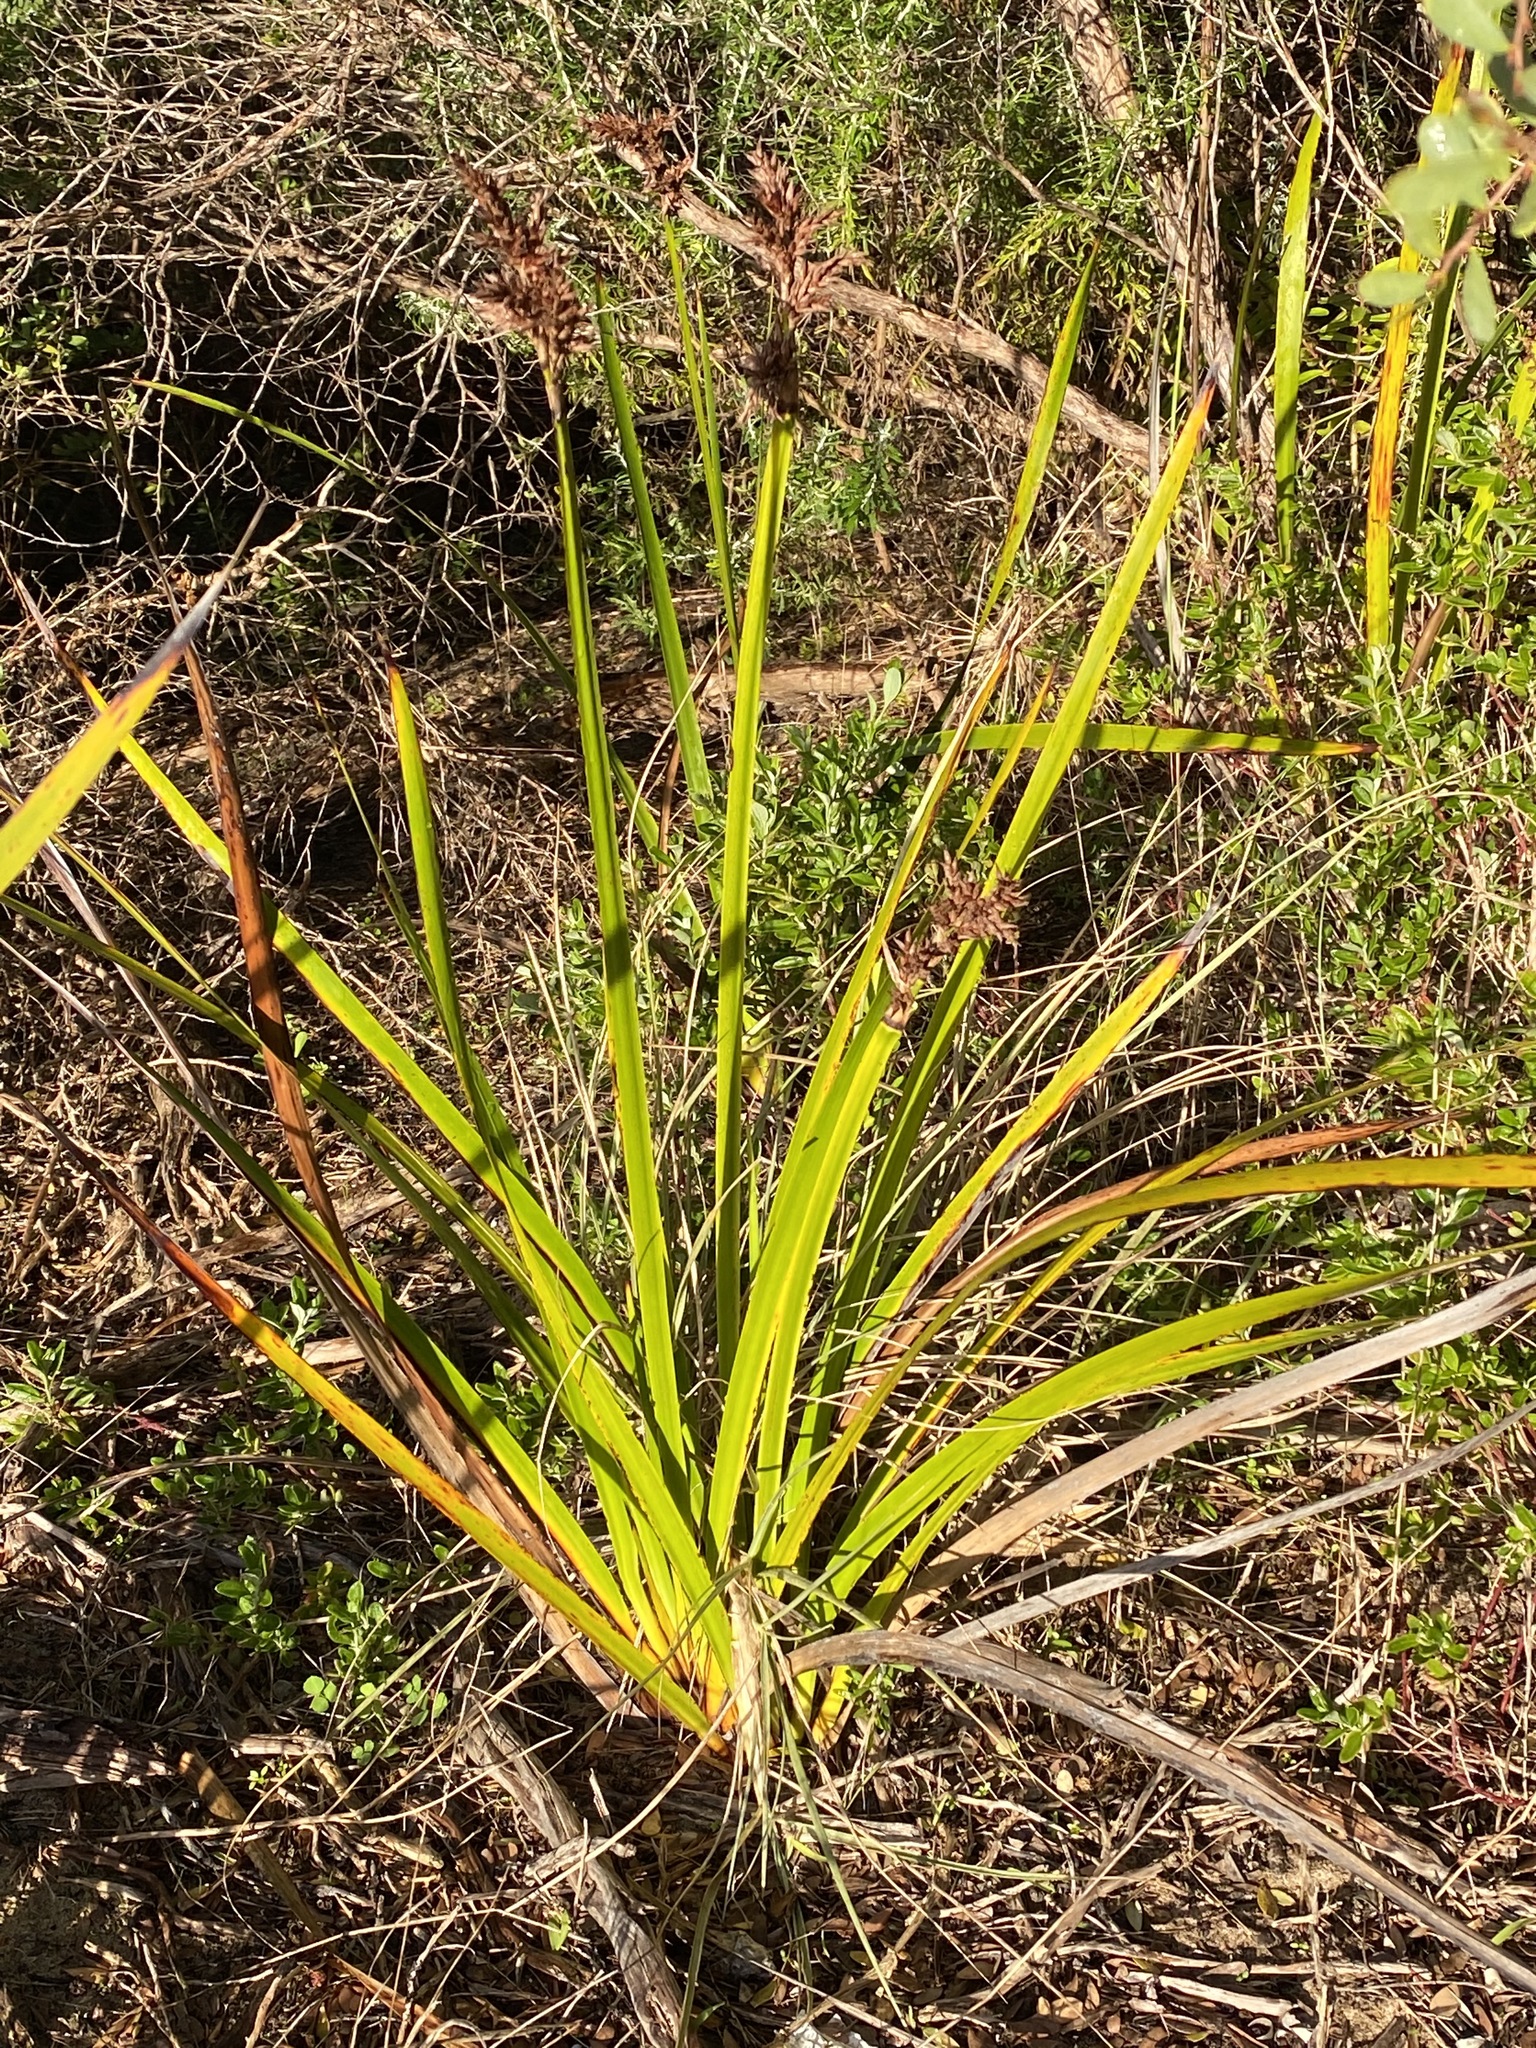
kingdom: Plantae
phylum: Tracheophyta
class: Liliopsida
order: Poales
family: Cyperaceae
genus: Lepidosperma
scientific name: Lepidosperma gladiatum
